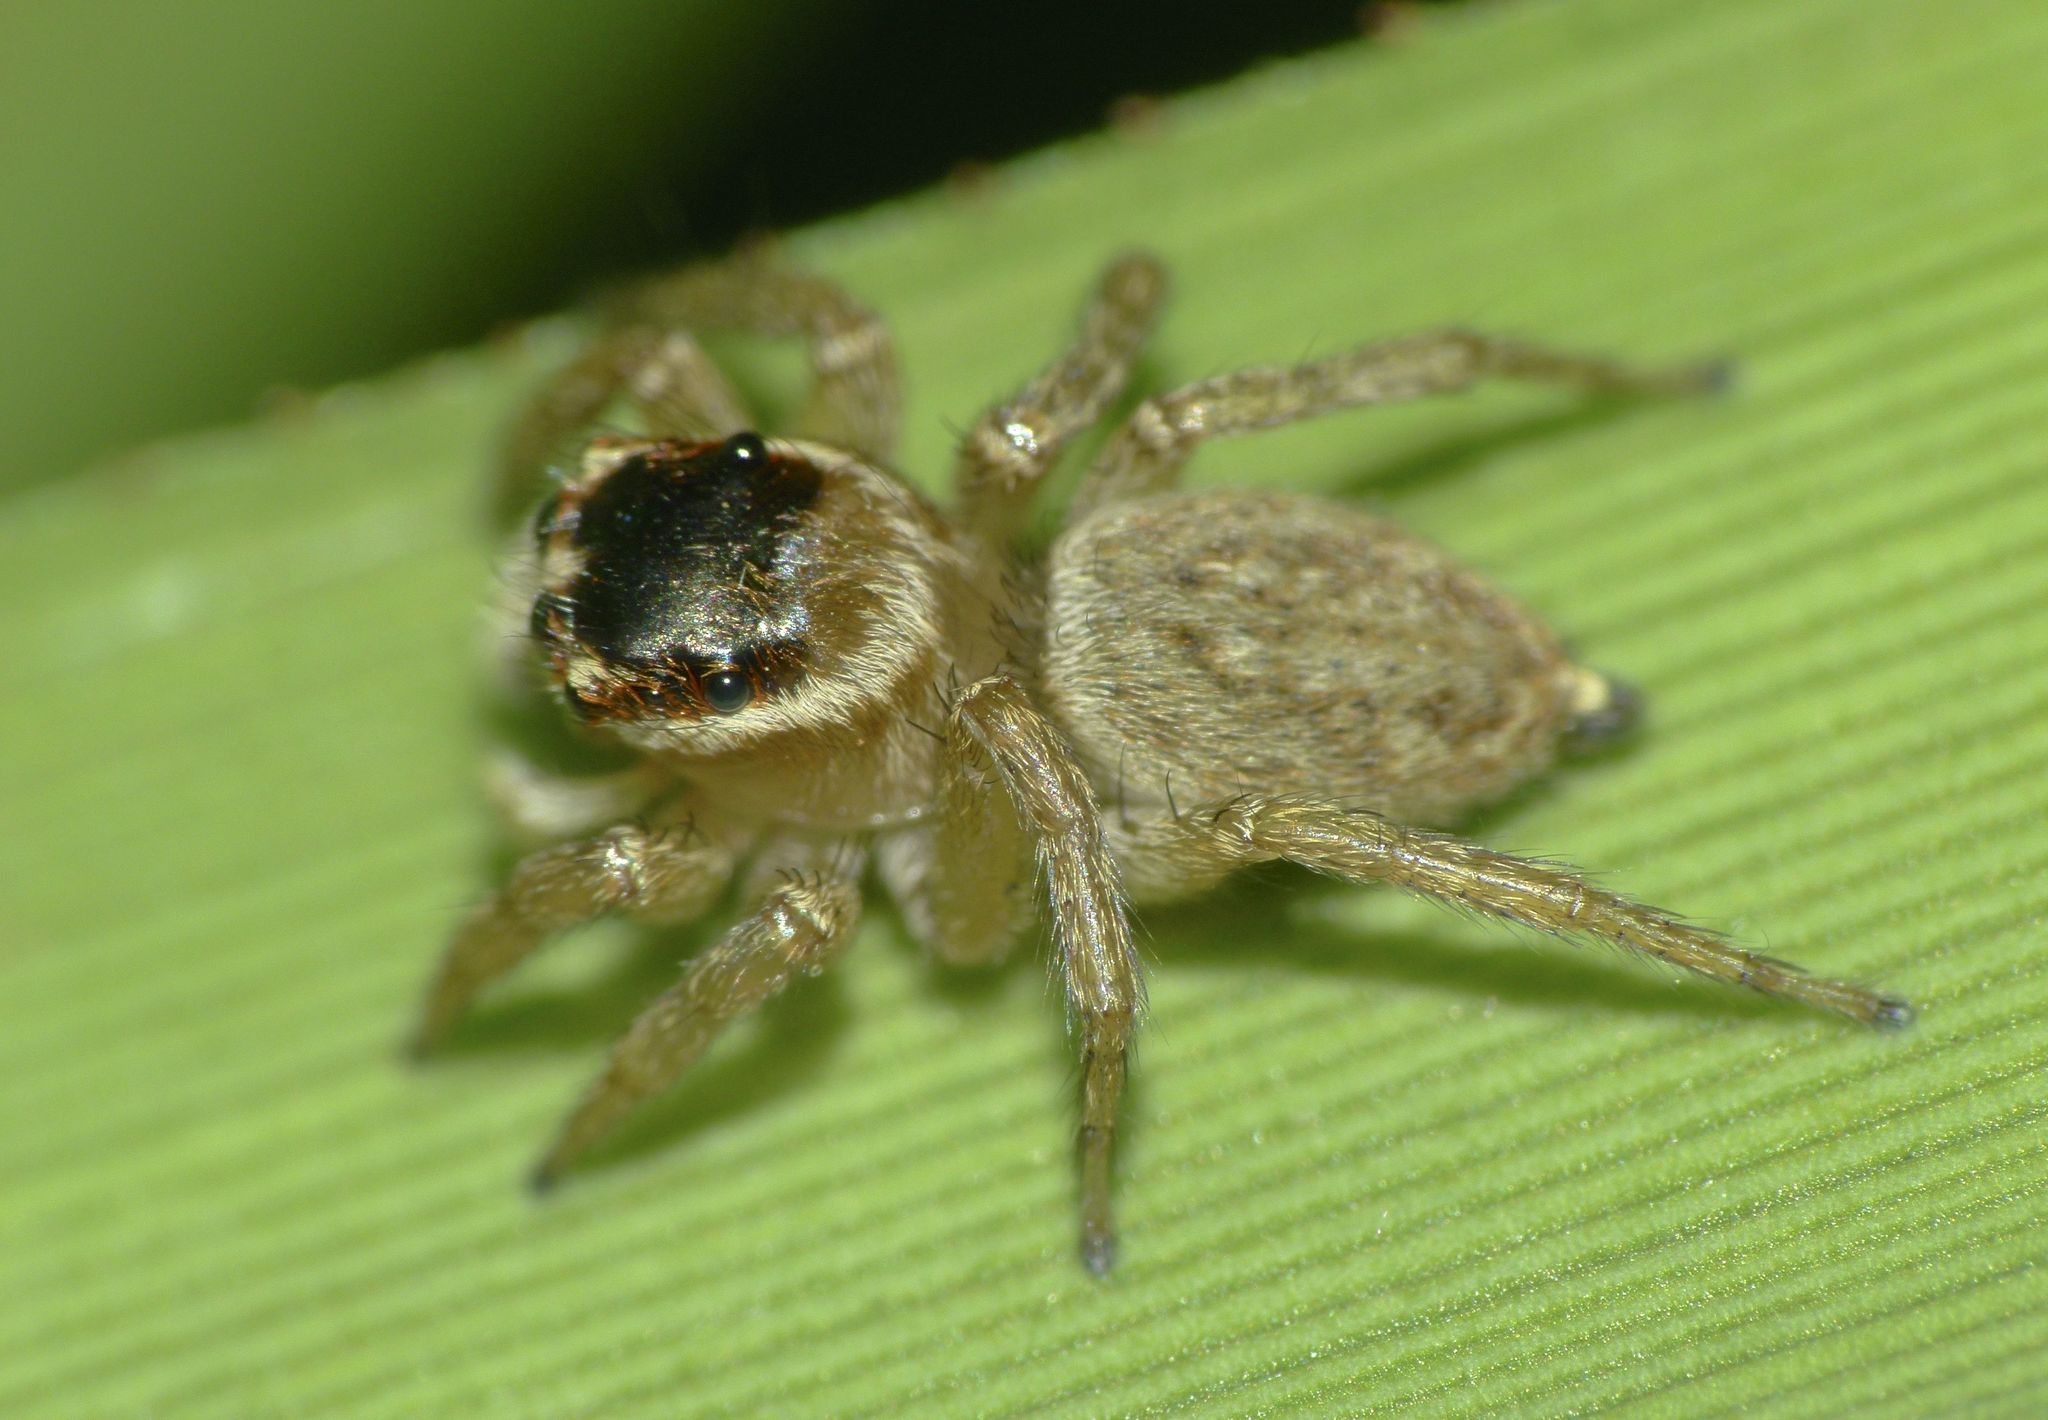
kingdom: Animalia
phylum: Arthropoda
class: Arachnida
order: Araneae
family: Salticidae
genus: Maratus
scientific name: Maratus griseus
